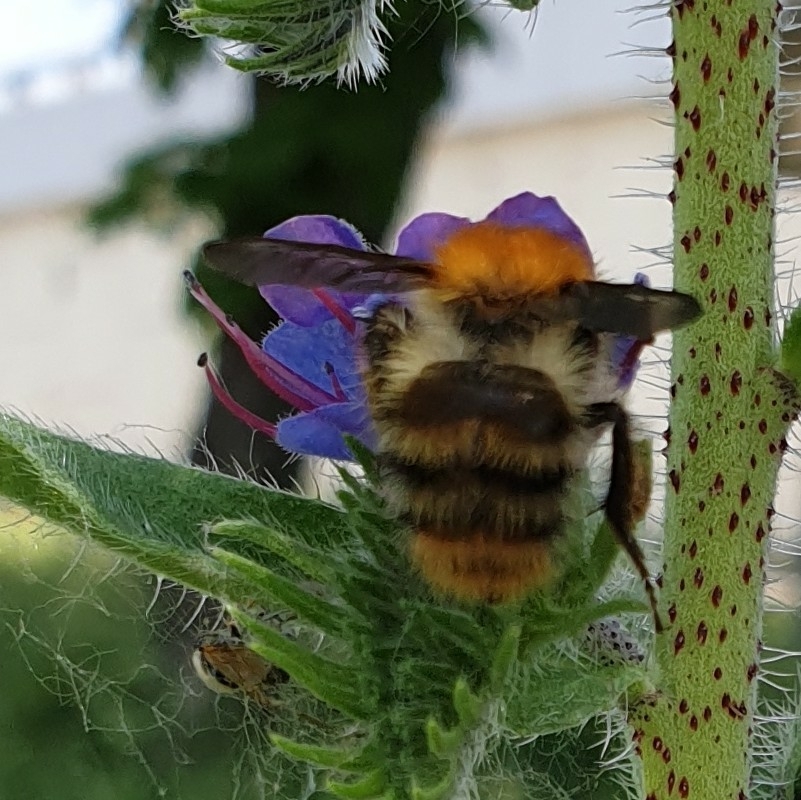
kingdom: Animalia
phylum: Arthropoda
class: Insecta
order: Hymenoptera
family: Apidae
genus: Bombus
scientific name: Bombus pascuorum
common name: Common carder bee
